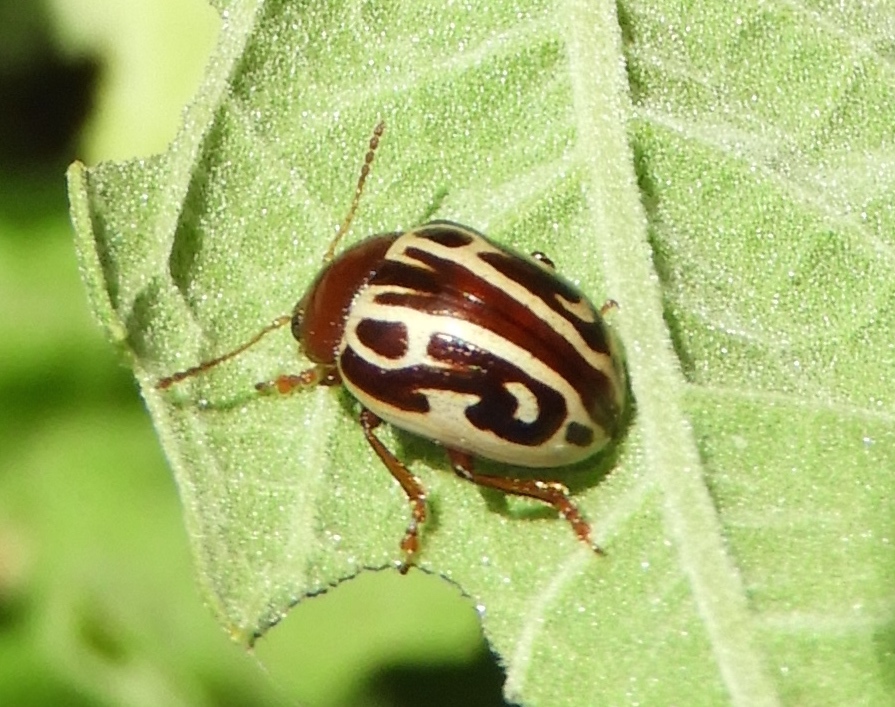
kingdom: Animalia
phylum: Arthropoda
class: Insecta
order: Coleoptera
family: Chrysomelidae
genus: Calligrapha
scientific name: Calligrapha
